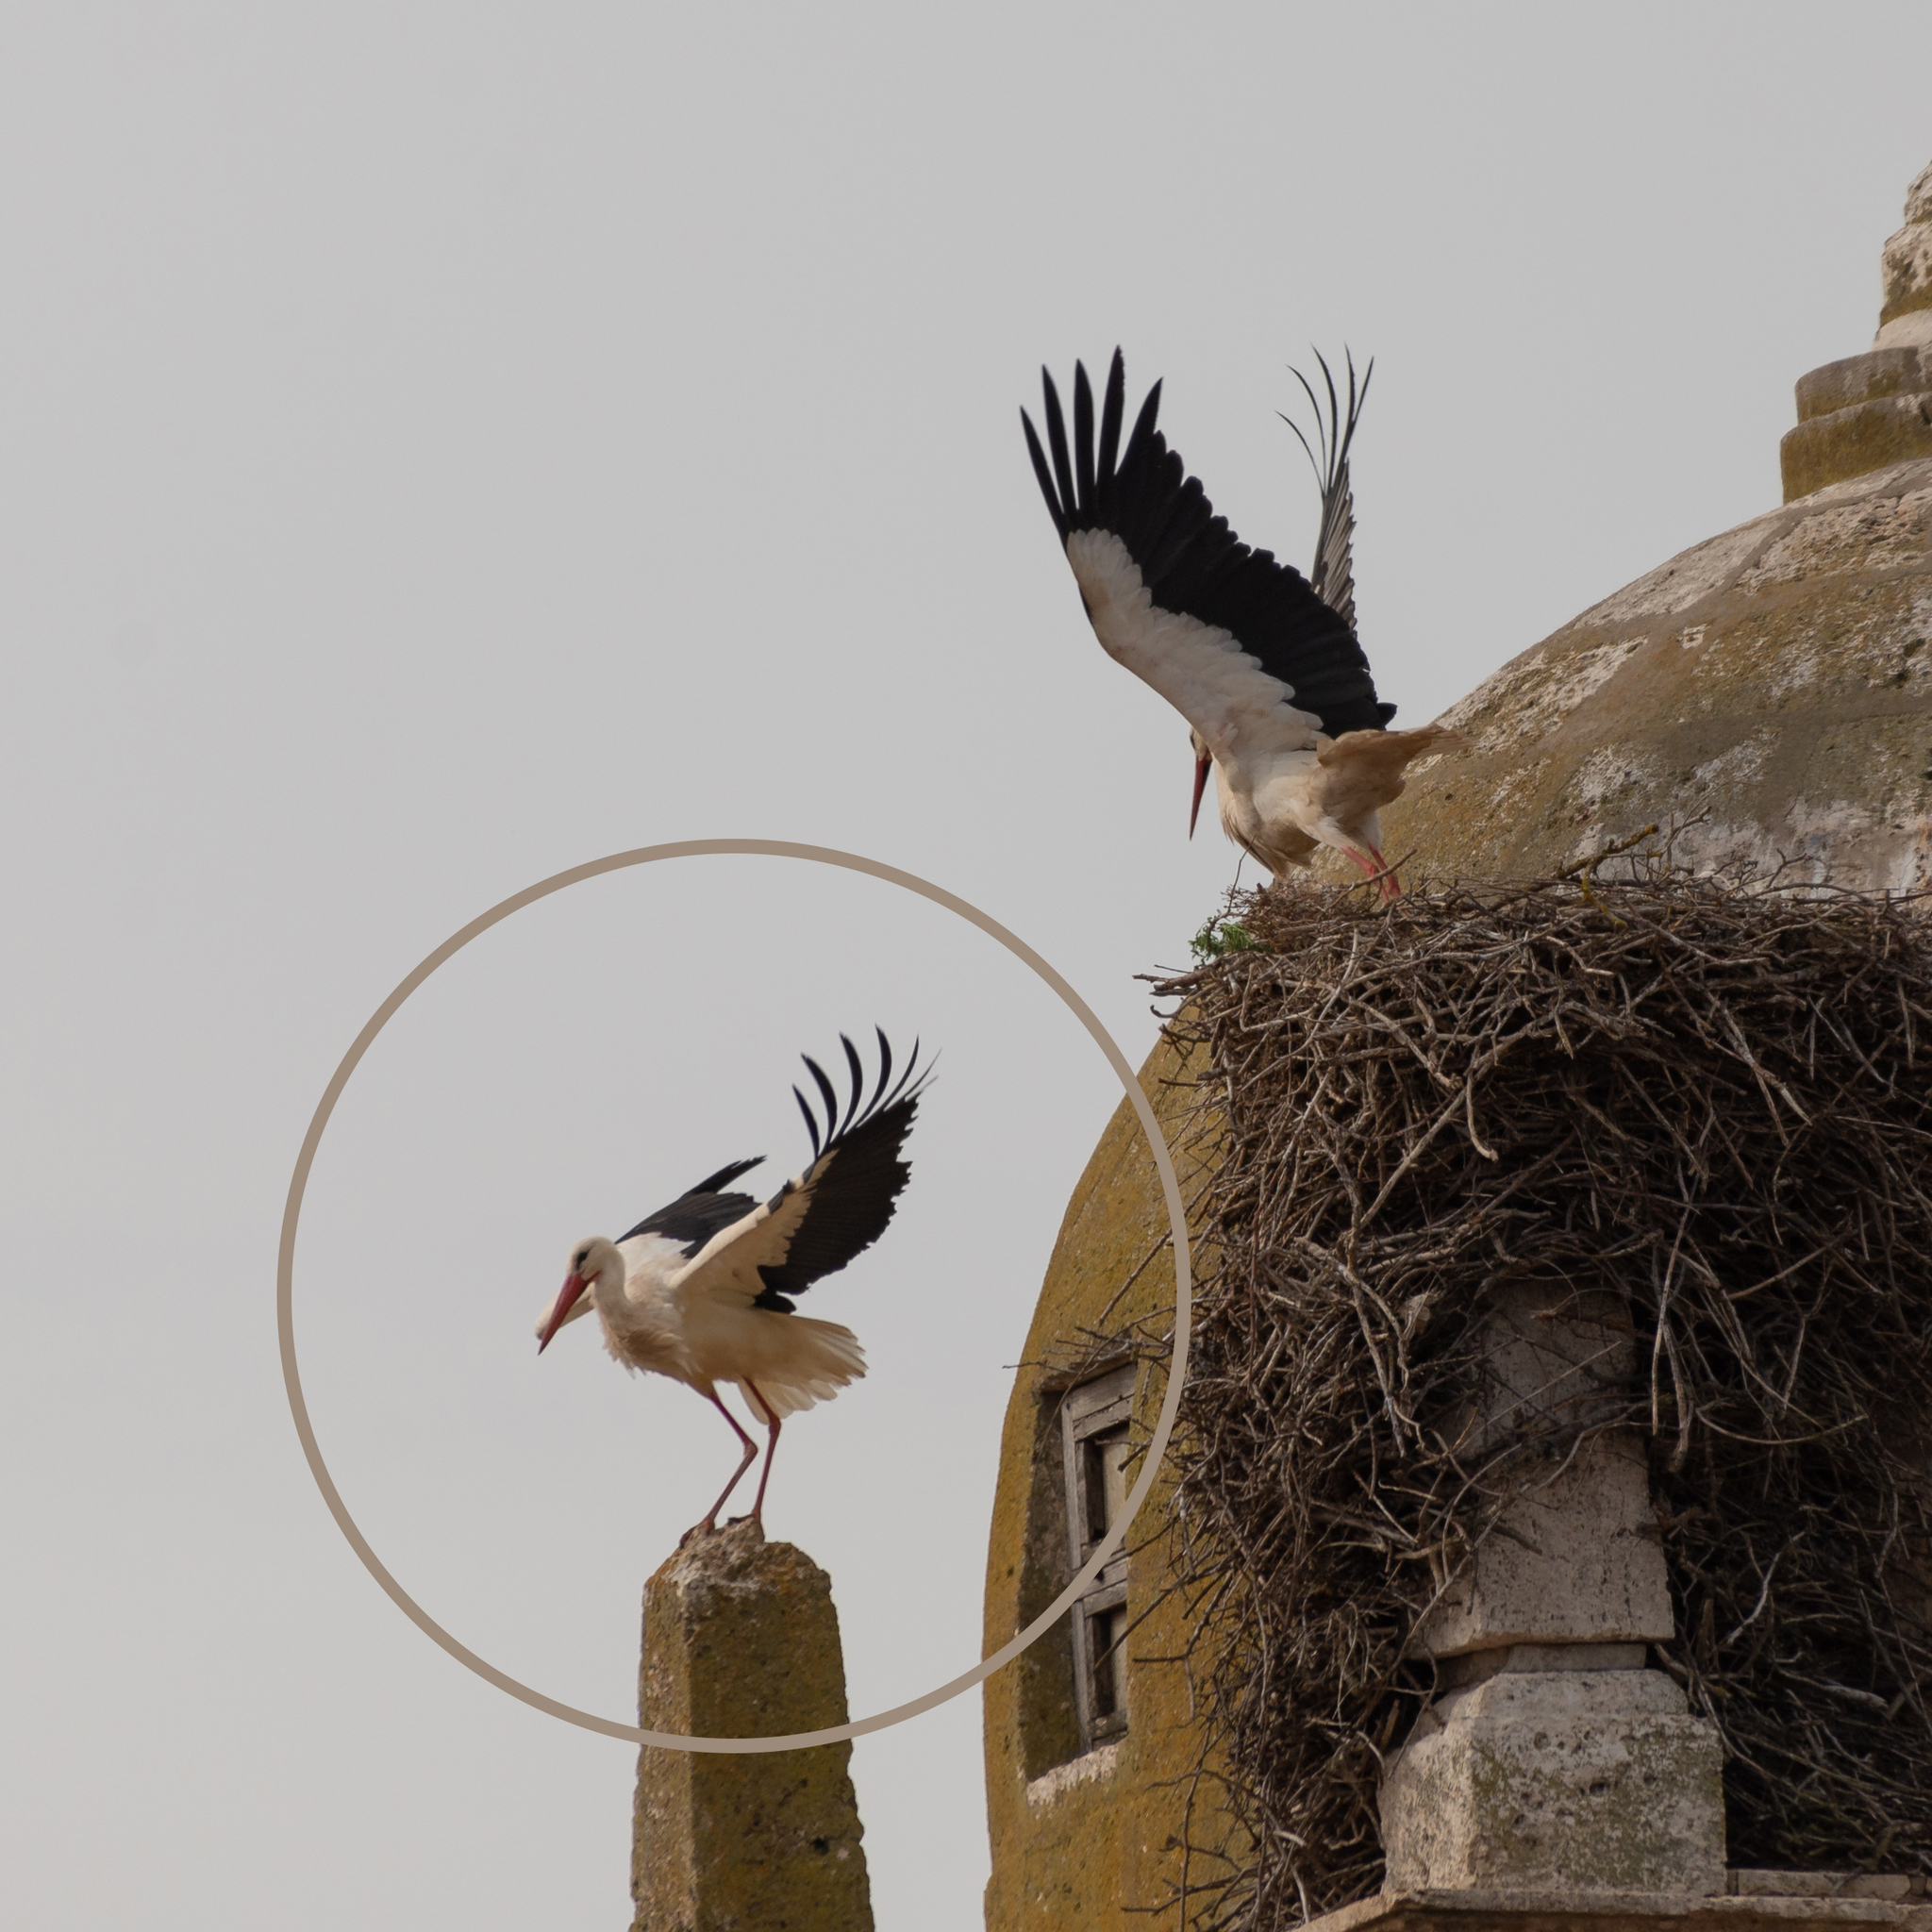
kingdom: Animalia
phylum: Chordata
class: Aves
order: Ciconiiformes
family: Ciconiidae
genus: Ciconia
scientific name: Ciconia ciconia
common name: White stork
